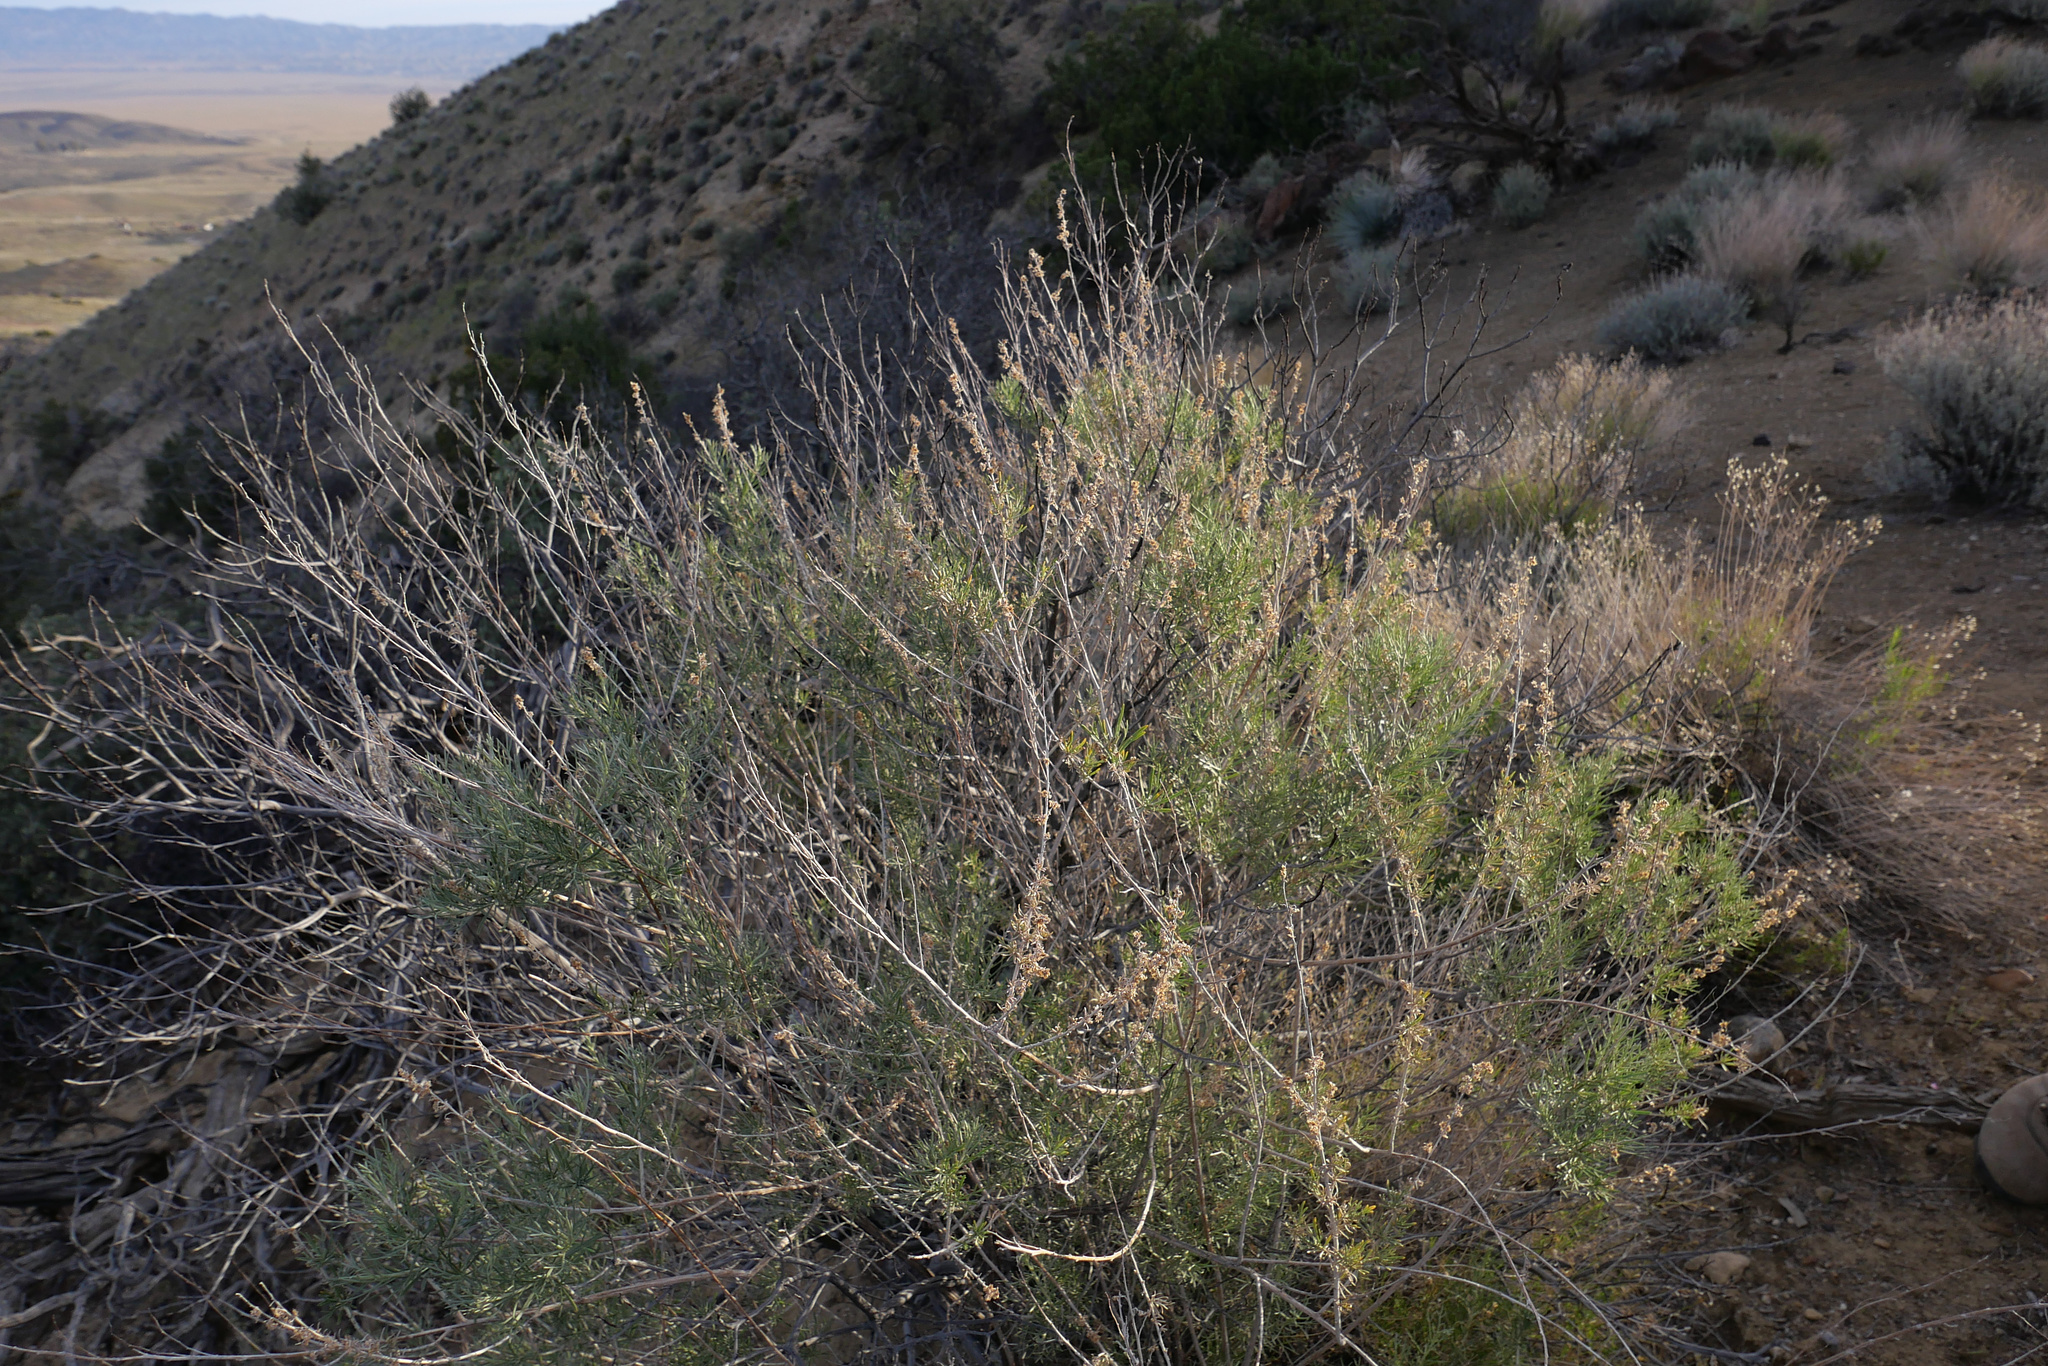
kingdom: Plantae
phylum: Tracheophyta
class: Magnoliopsida
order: Asterales
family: Asteraceae
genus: Artemisia
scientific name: Artemisia californica
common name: California sagebrush
